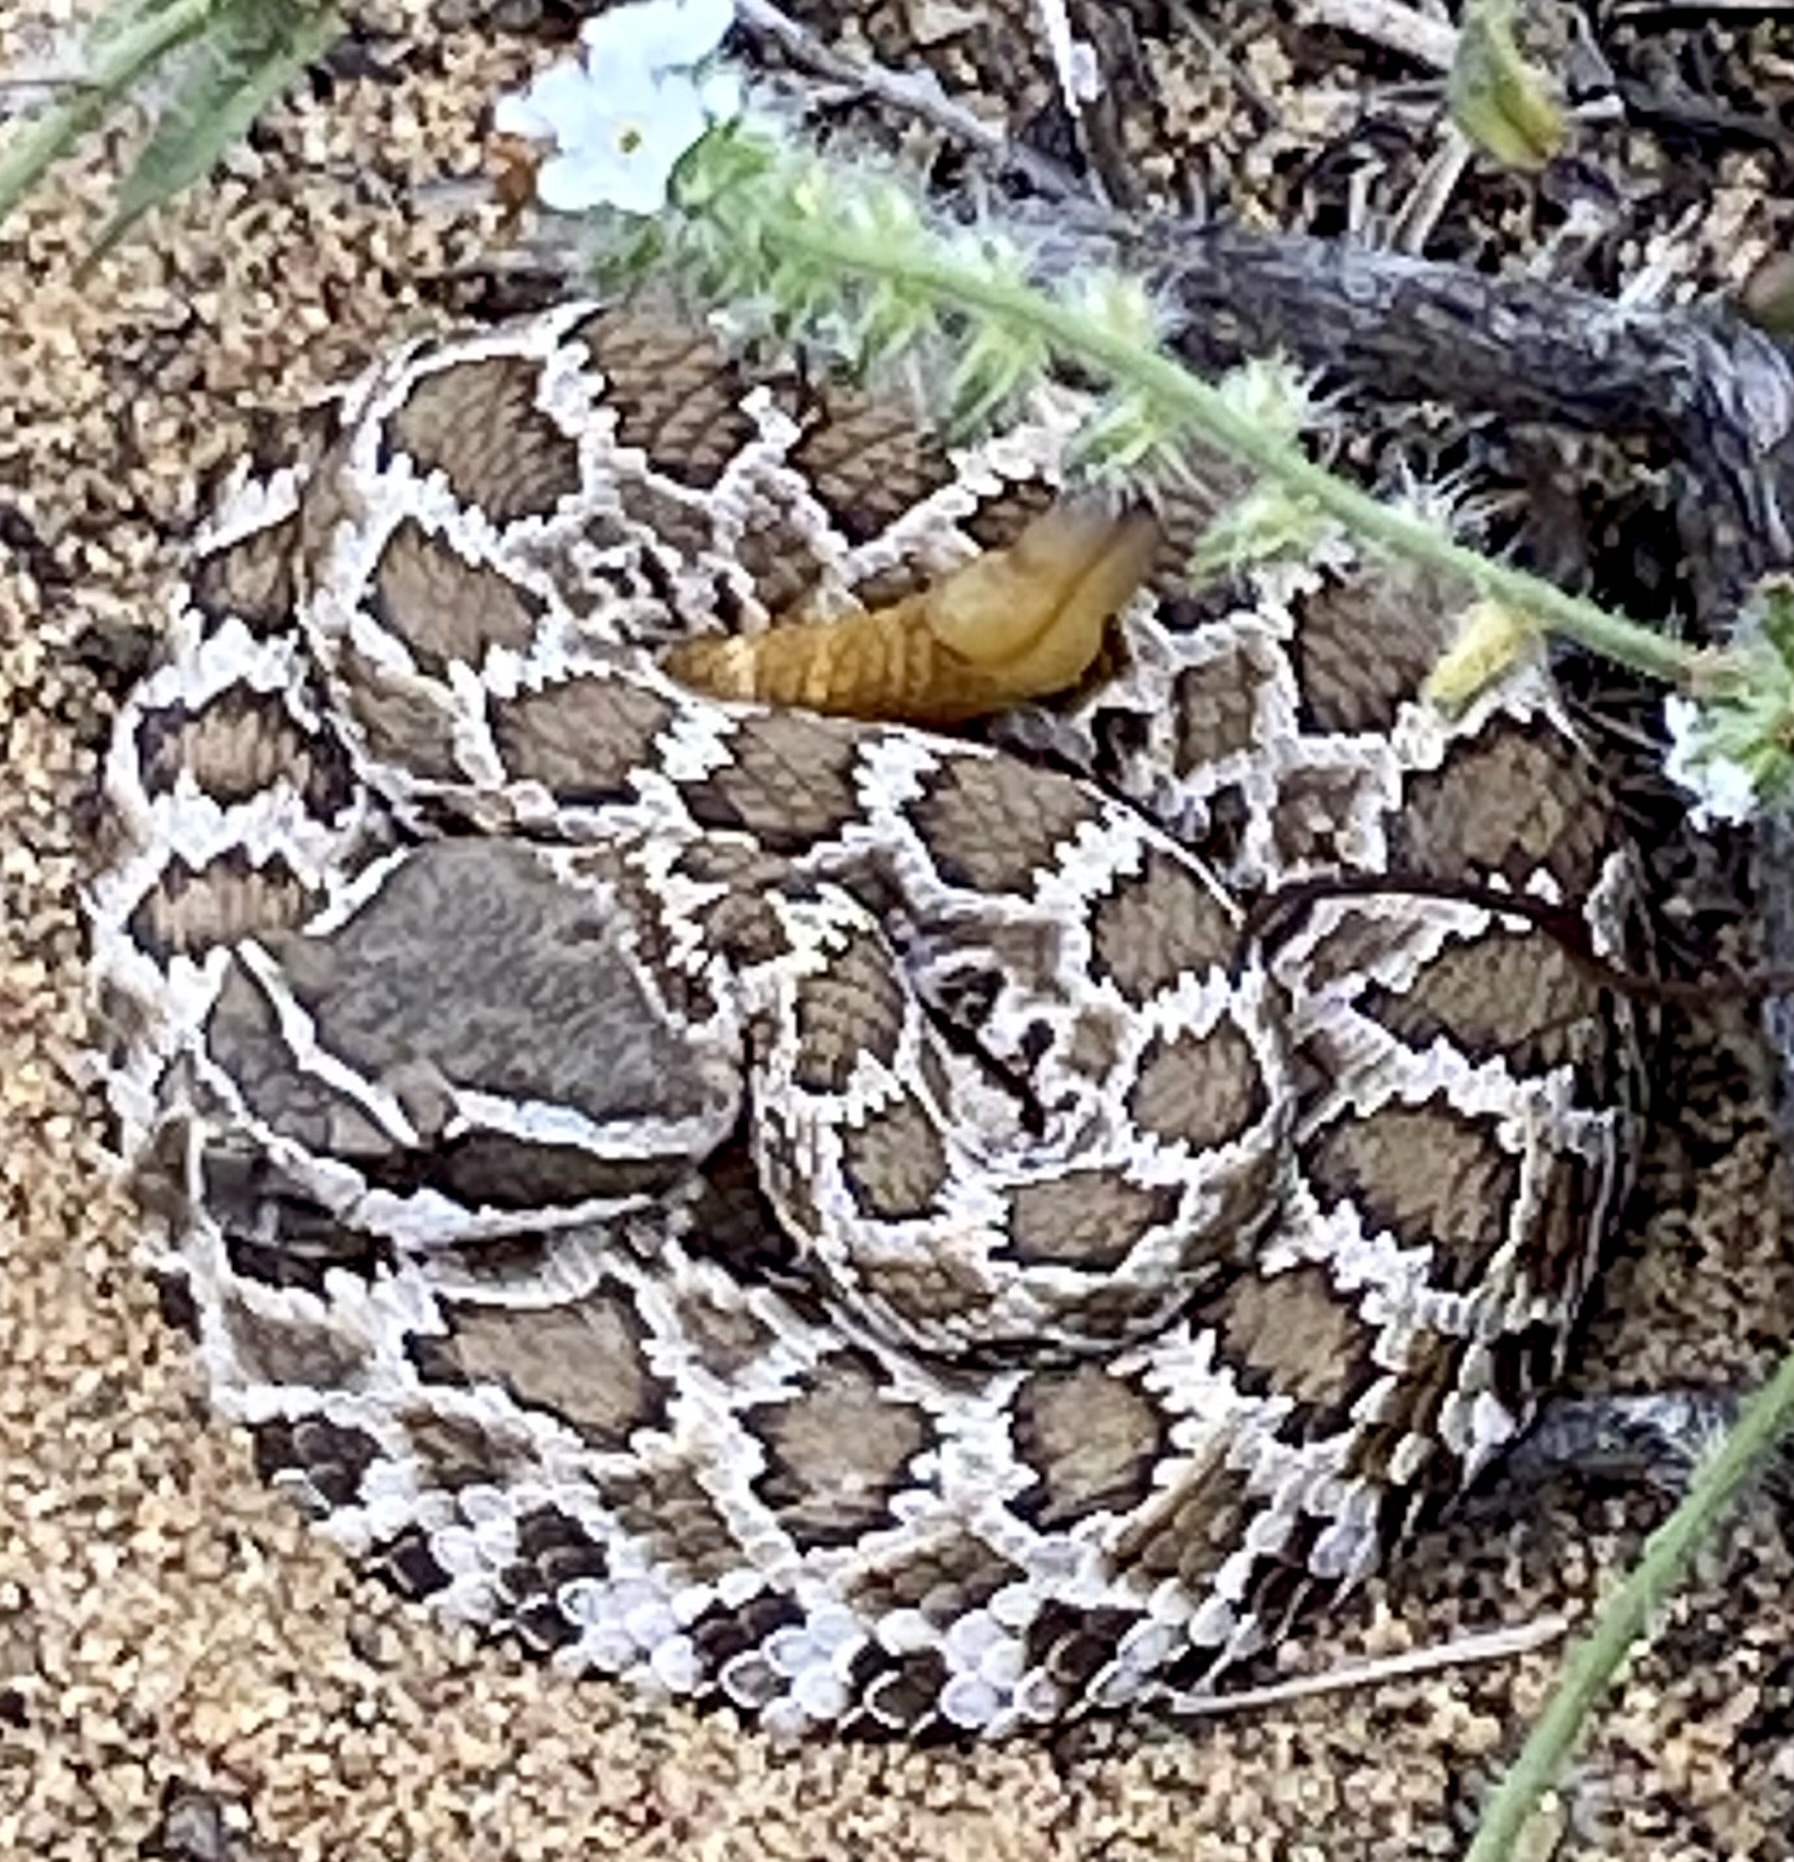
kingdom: Animalia
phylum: Chordata
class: Squamata
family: Viperidae
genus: Crotalus
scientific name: Crotalus oreganus
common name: Abyssus
